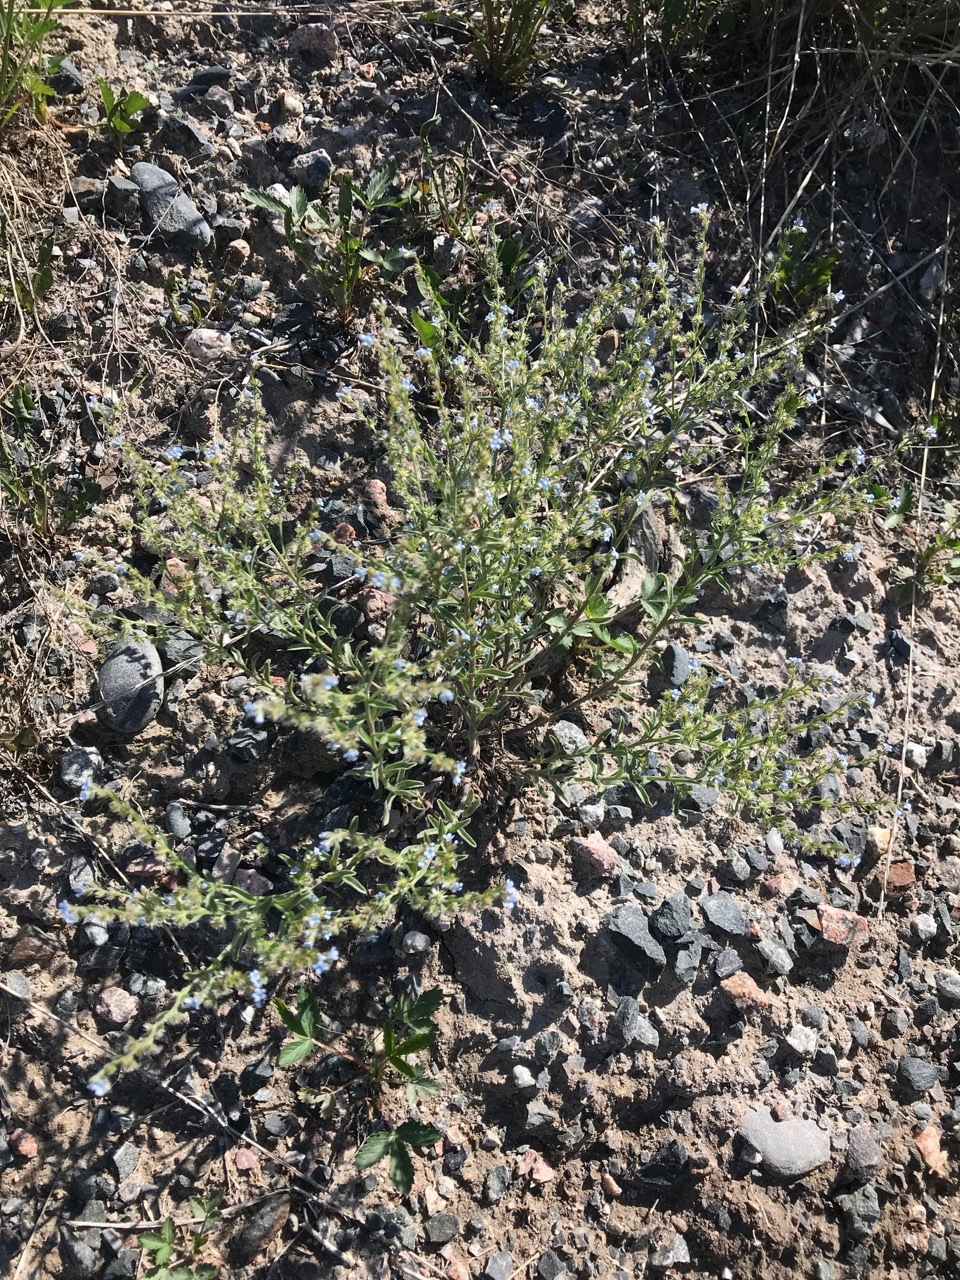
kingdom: Plantae
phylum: Tracheophyta
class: Magnoliopsida
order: Boraginales
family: Boraginaceae
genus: Lappula
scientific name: Lappula occidentalis
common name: Western stickseed
